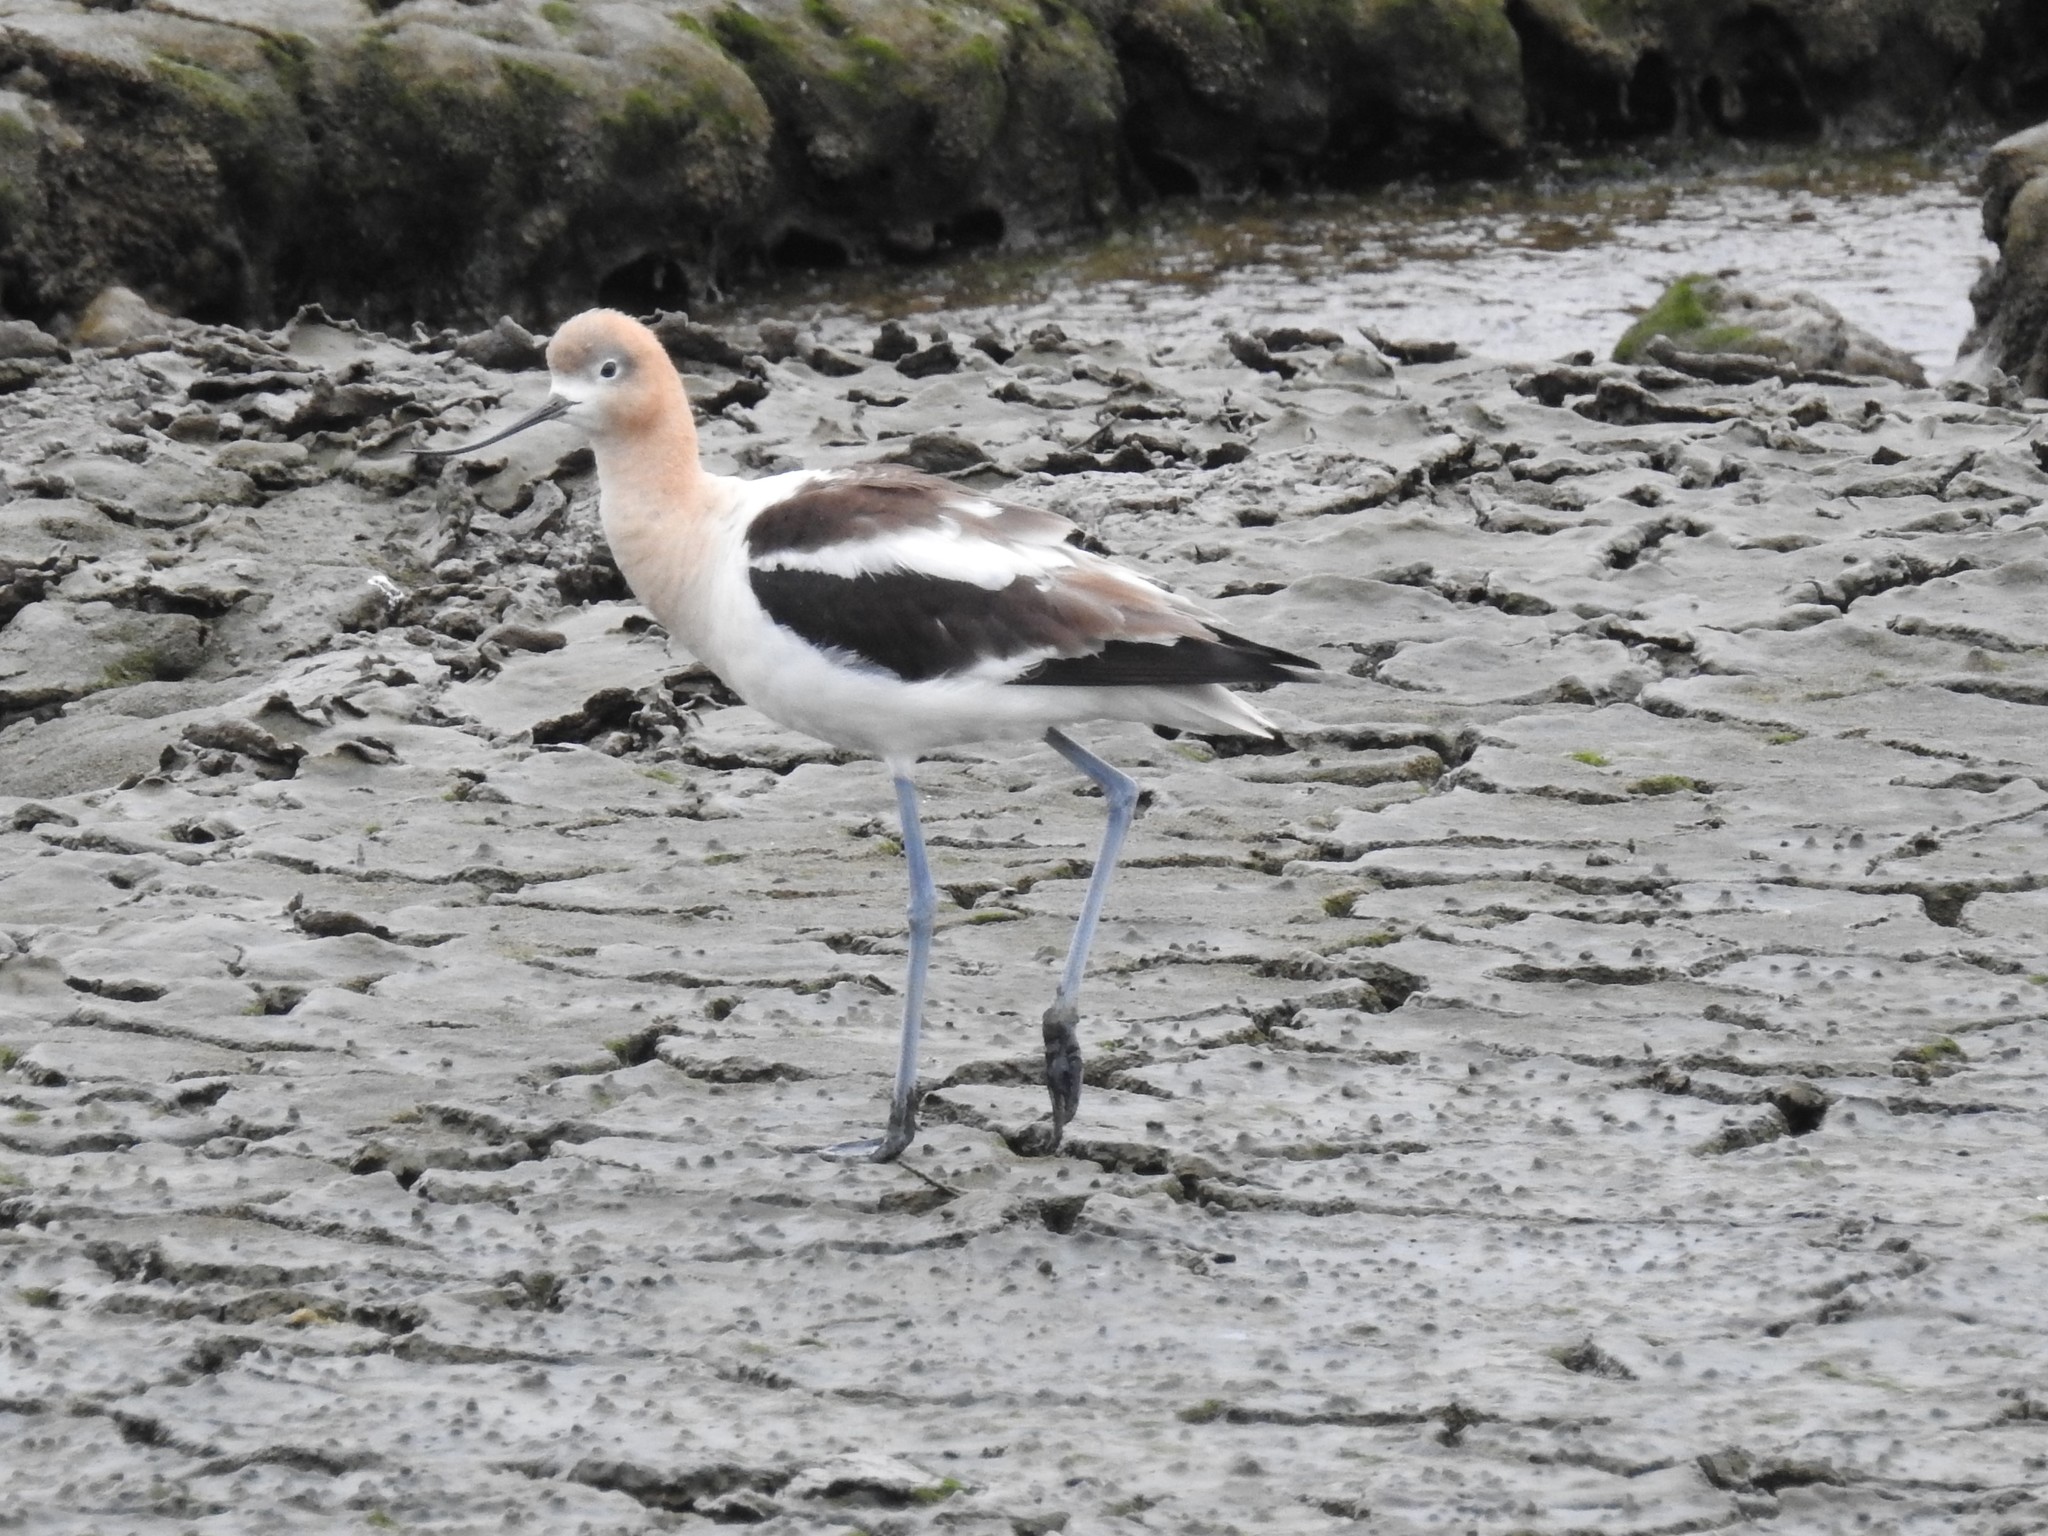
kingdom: Animalia
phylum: Chordata
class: Aves
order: Charadriiformes
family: Recurvirostridae
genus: Recurvirostra
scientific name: Recurvirostra americana
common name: American avocet
